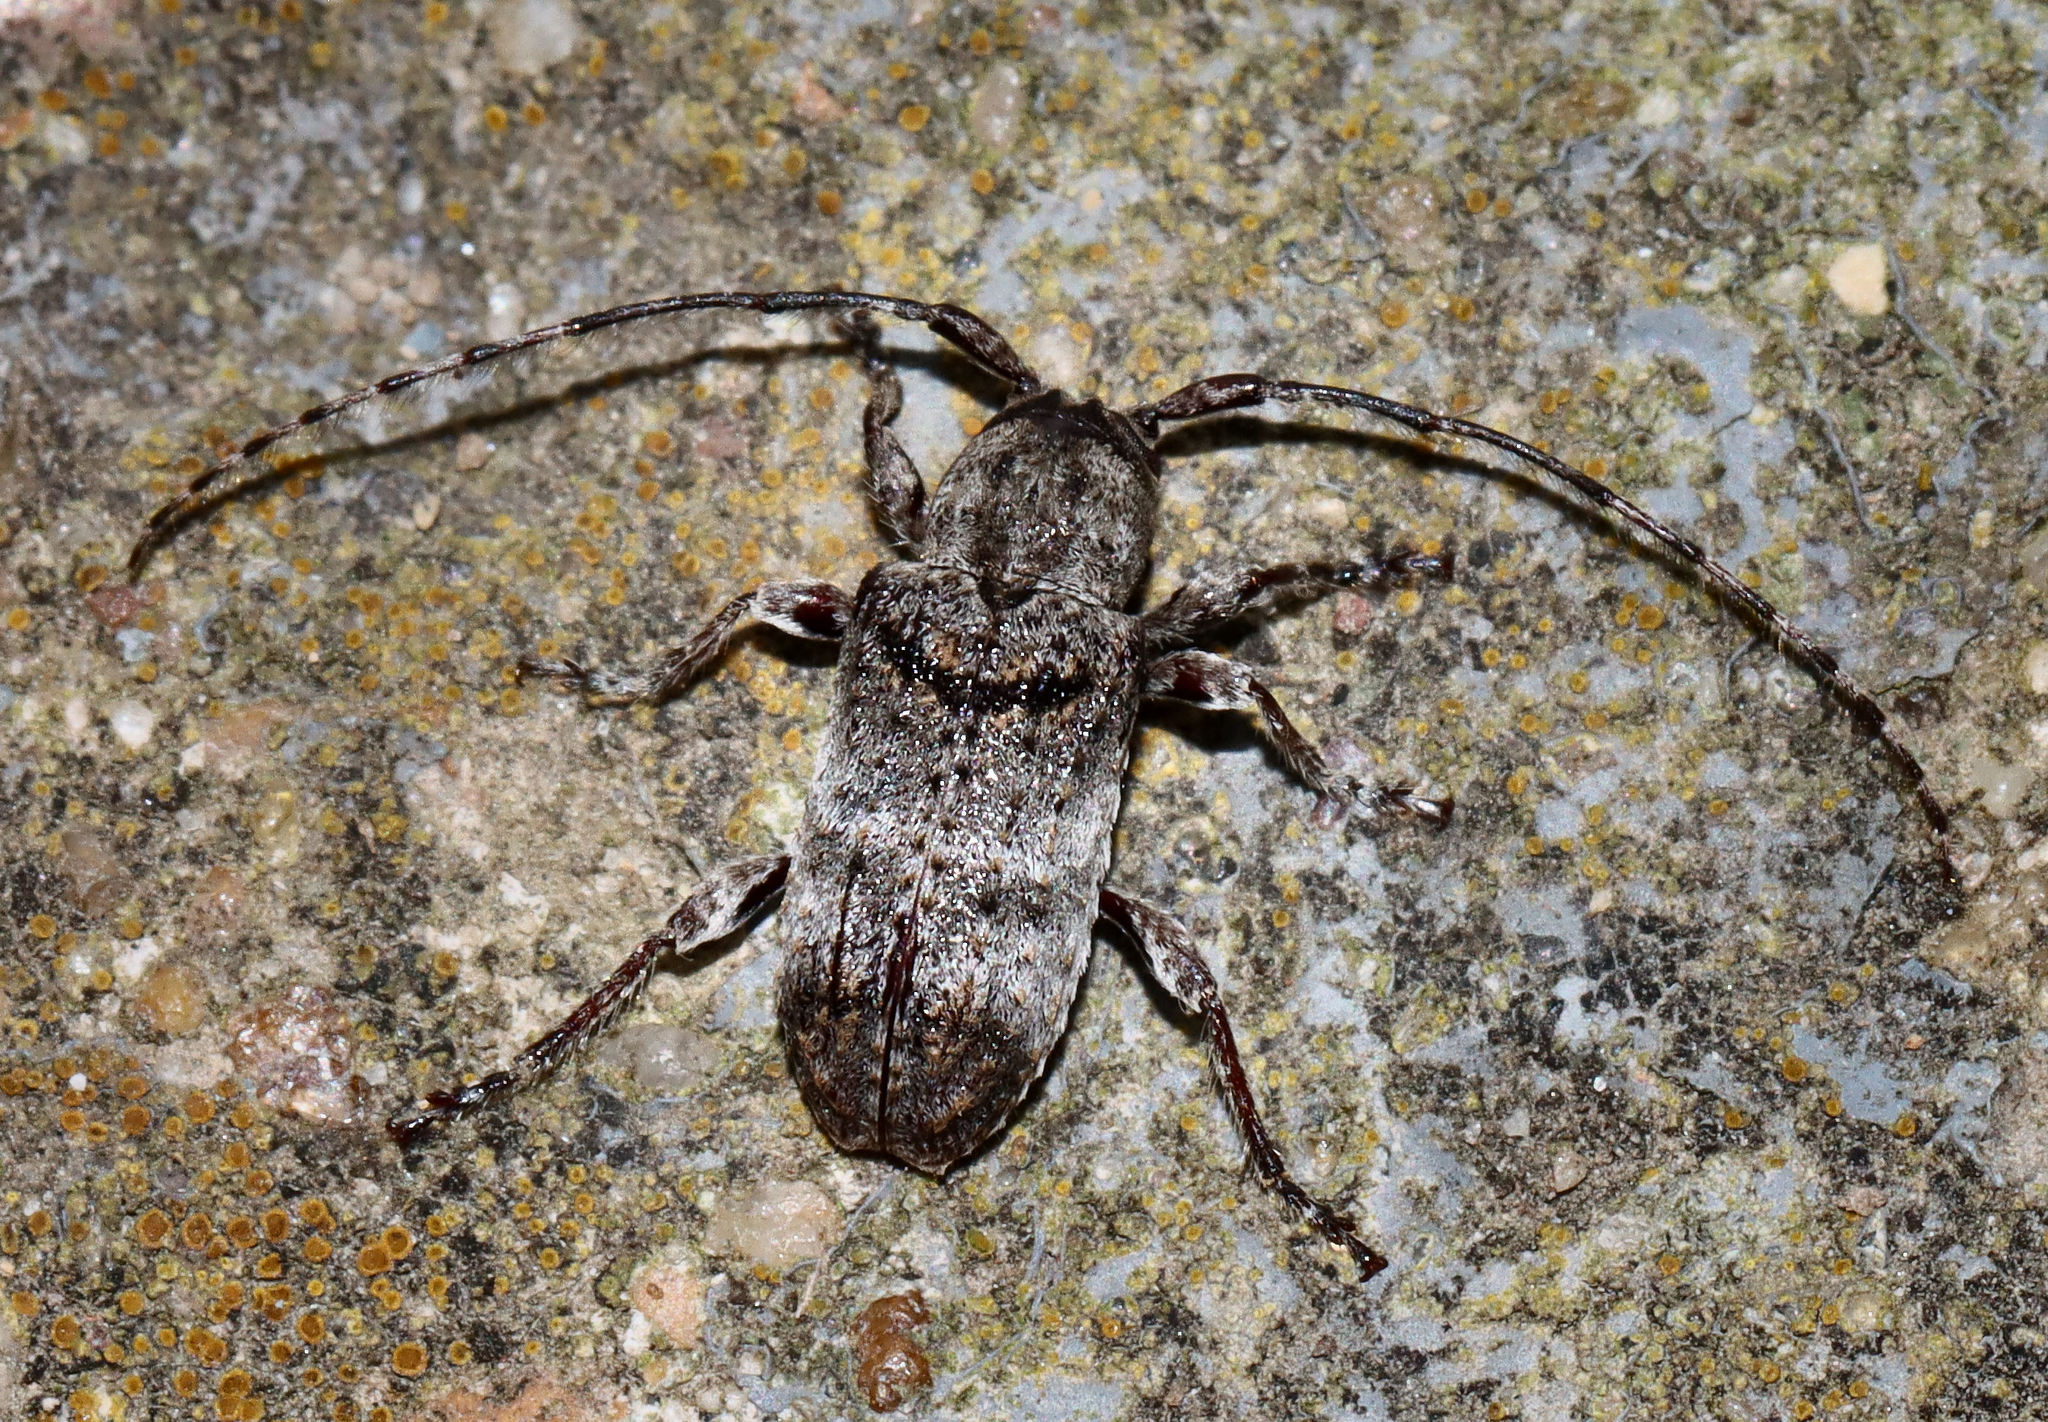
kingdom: Animalia
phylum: Arthropoda
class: Insecta
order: Coleoptera
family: Cerambycidae
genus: Ecyrus
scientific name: Ecyrus dasycerus
